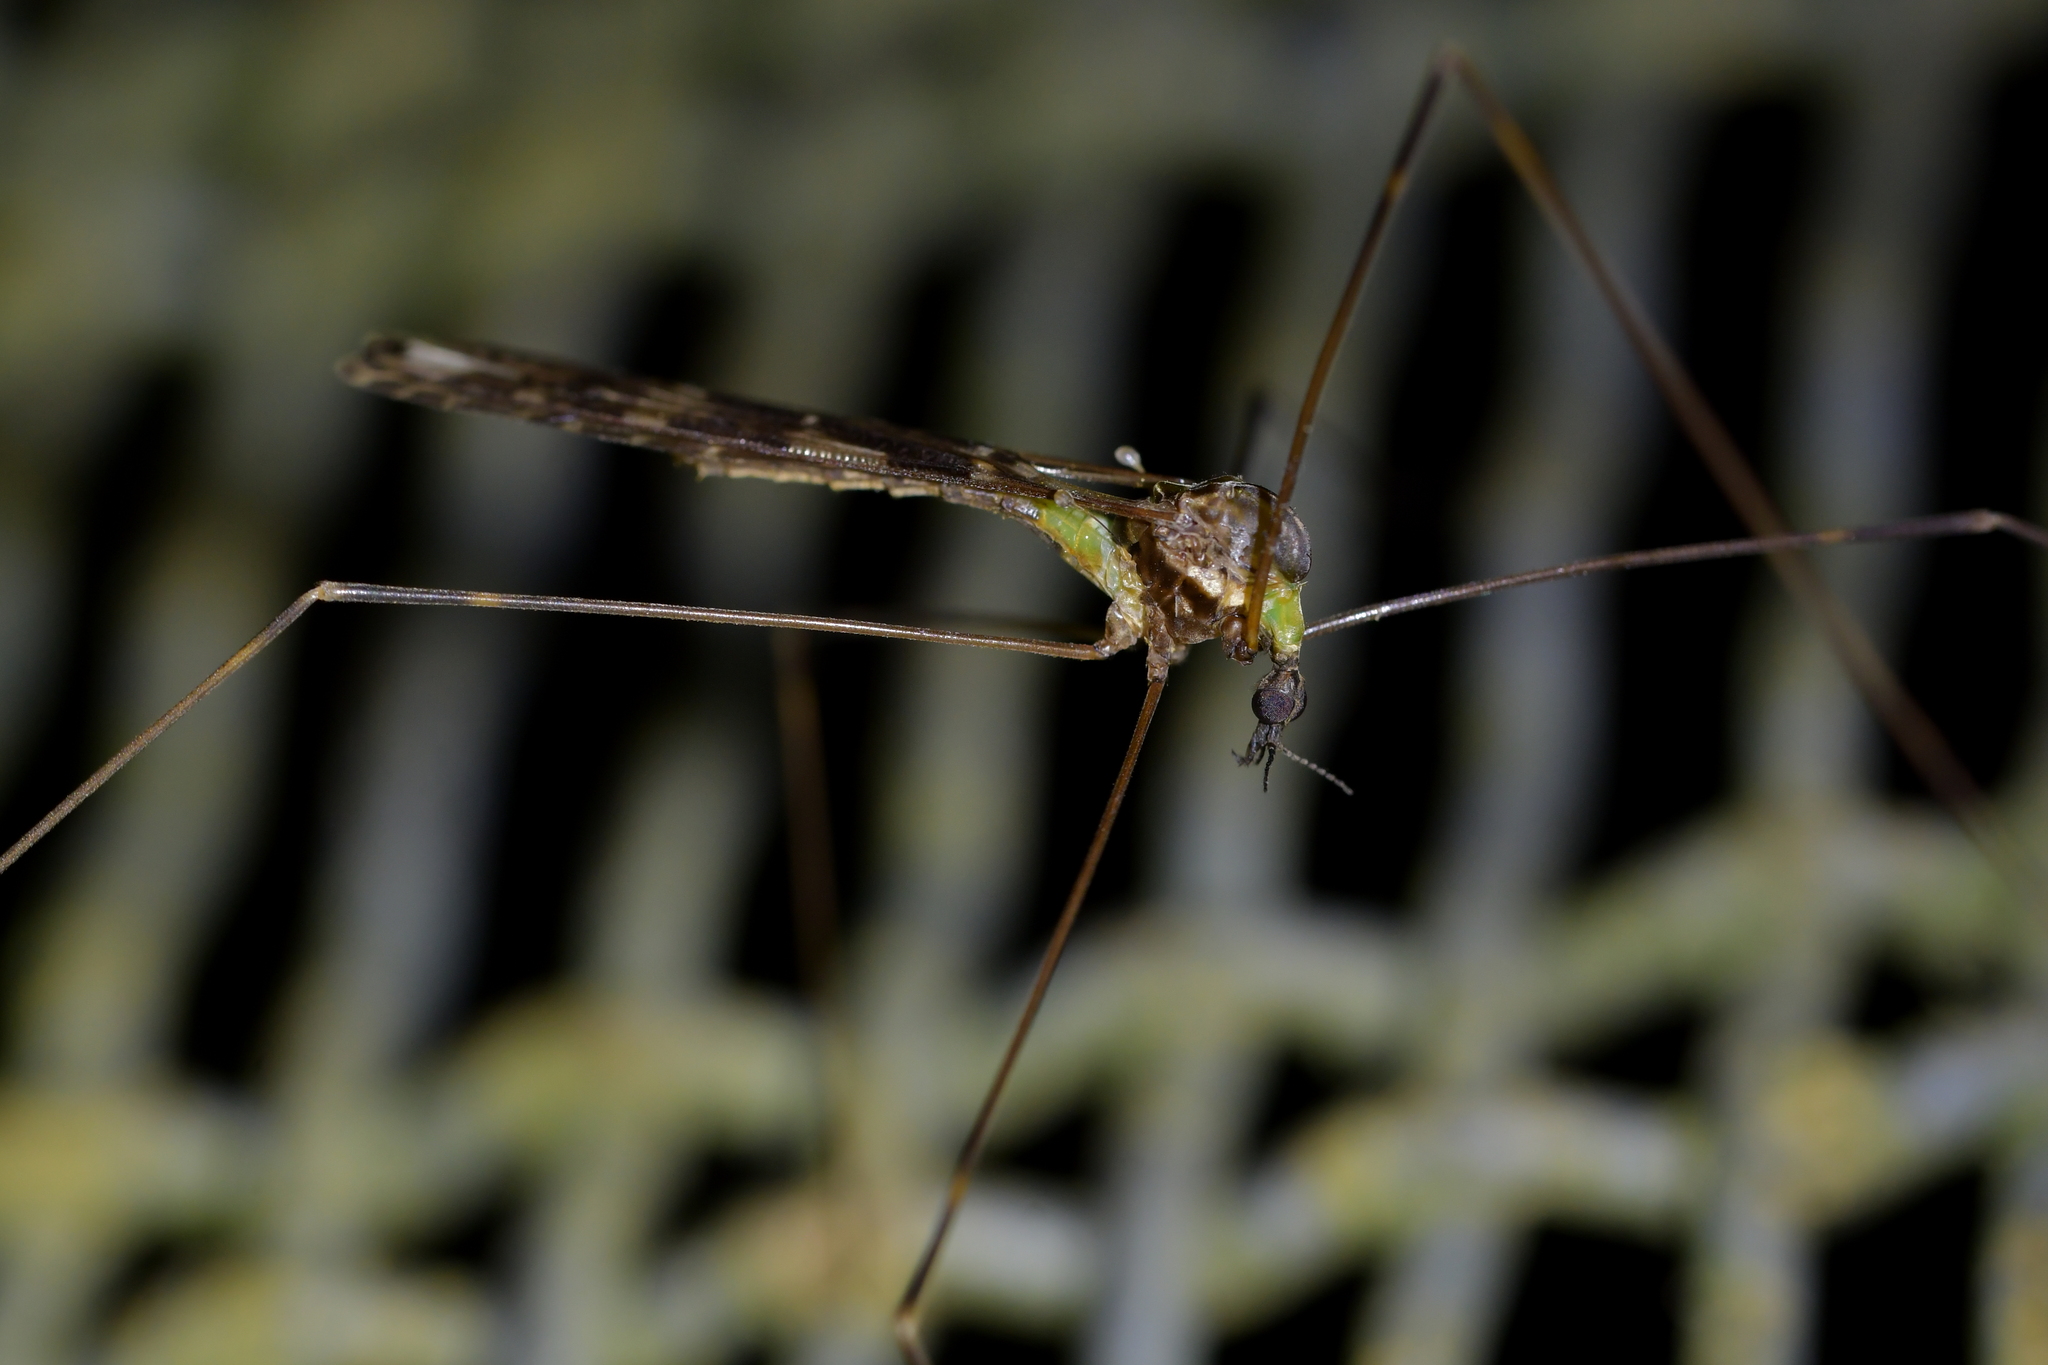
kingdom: Animalia
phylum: Arthropoda
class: Insecta
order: Diptera
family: Limoniidae
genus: Discobola
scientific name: Discobola dohrni
